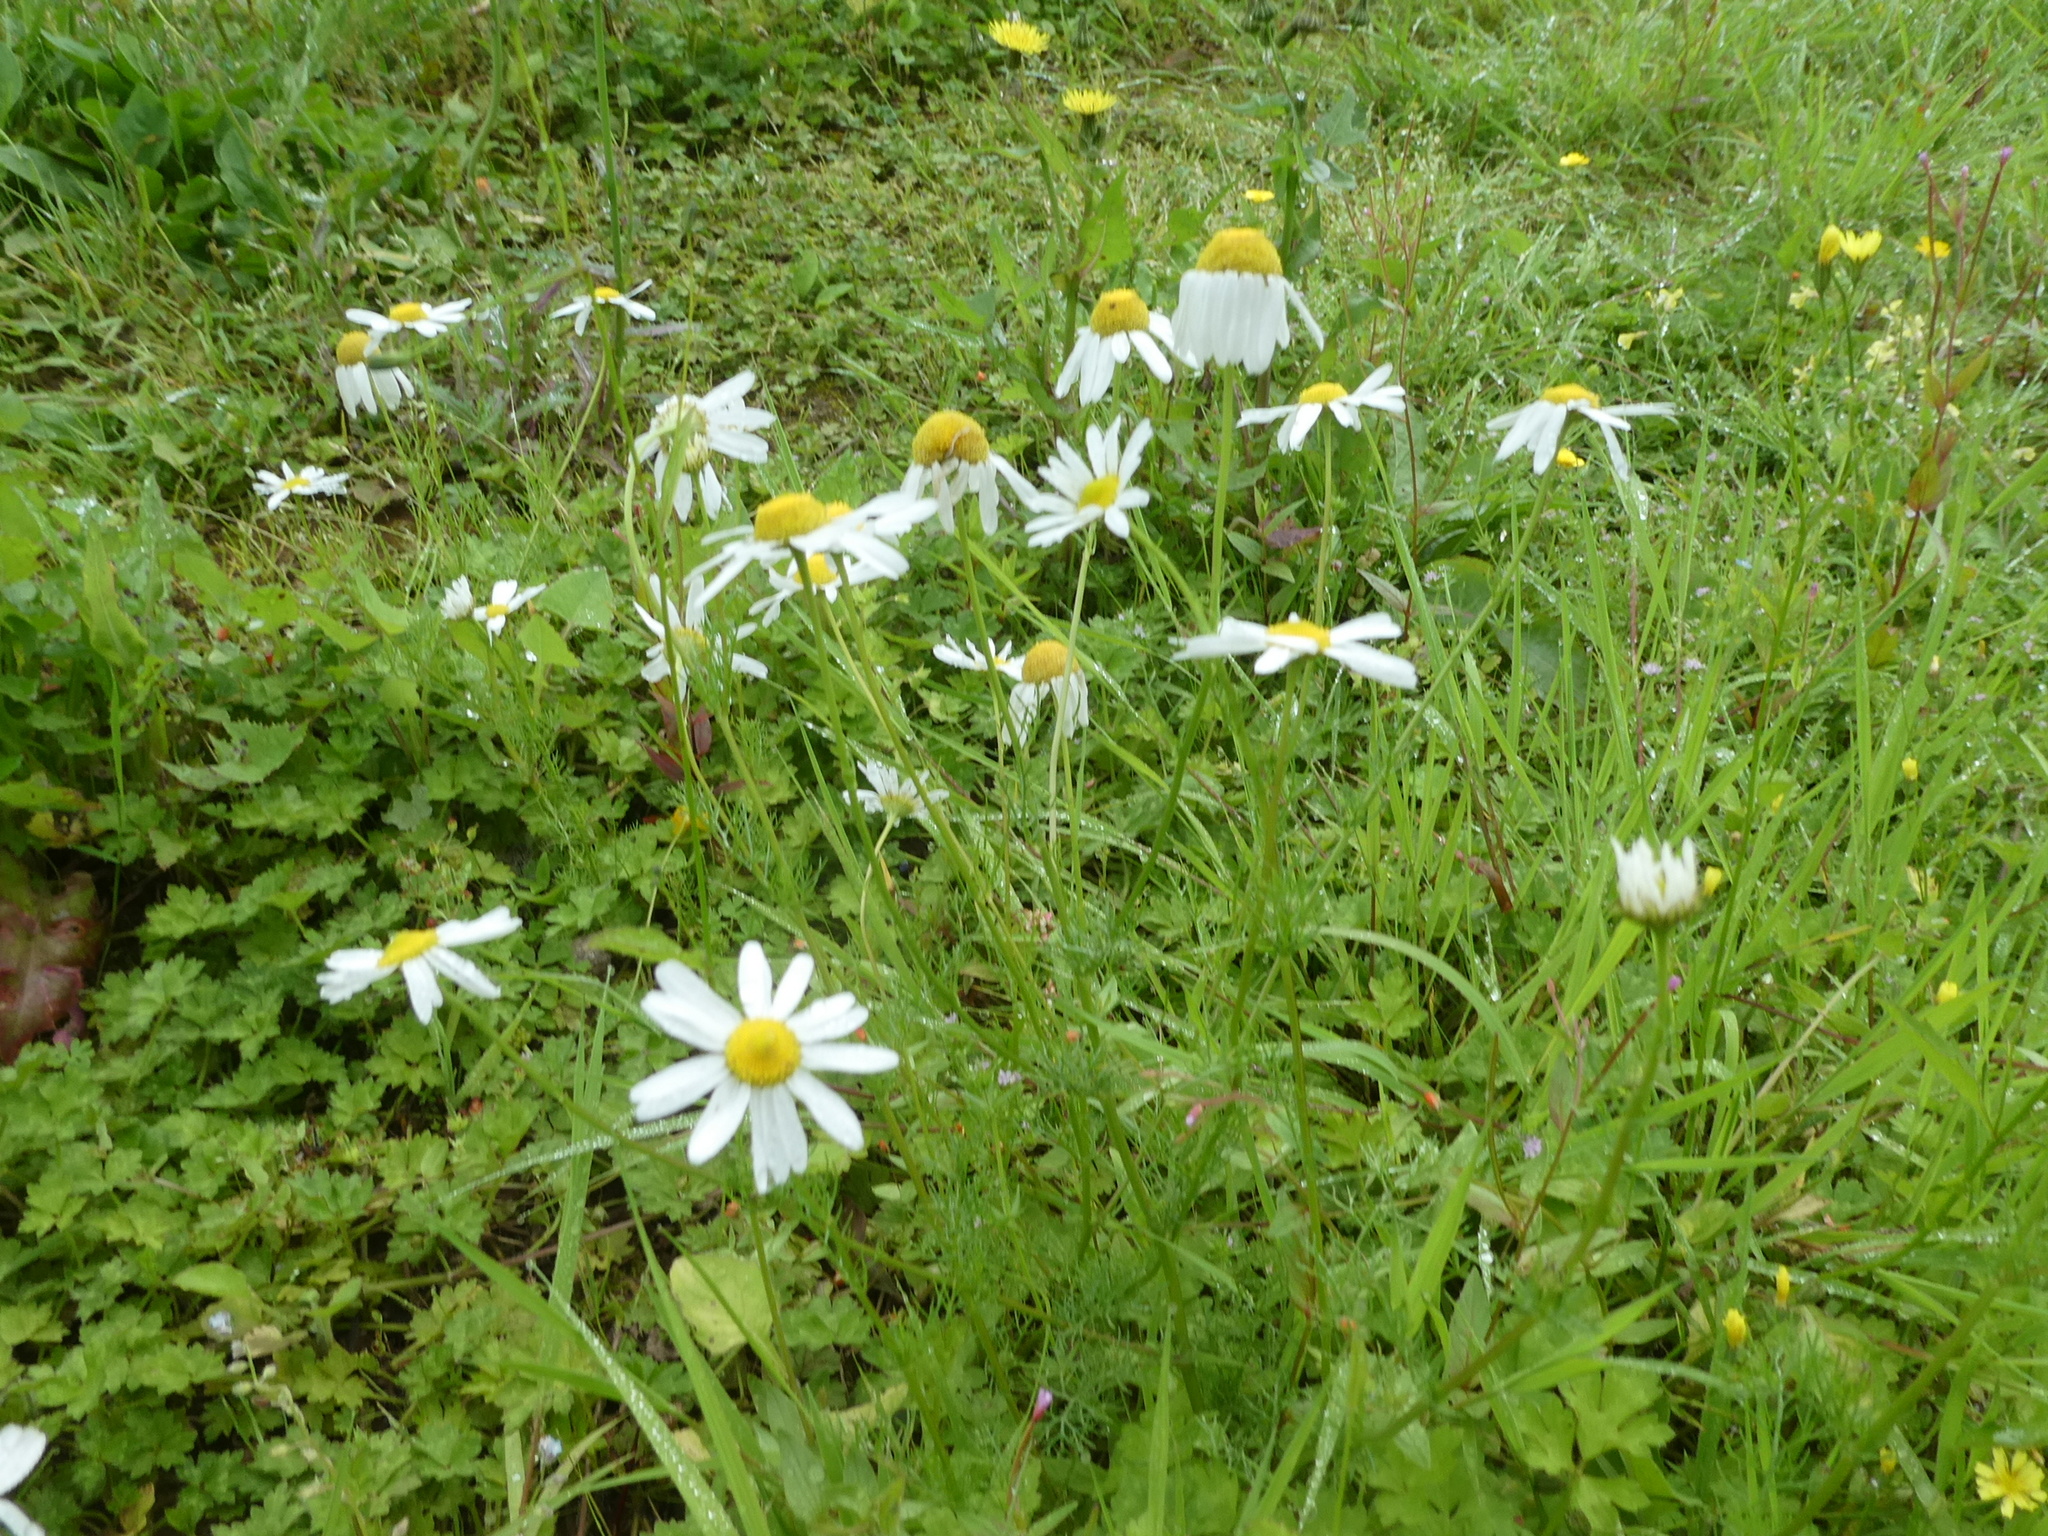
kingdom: Plantae
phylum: Tracheophyta
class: Magnoliopsida
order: Asterales
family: Asteraceae
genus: Tripleurospermum
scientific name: Tripleurospermum inodorum
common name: Scentless mayweed
